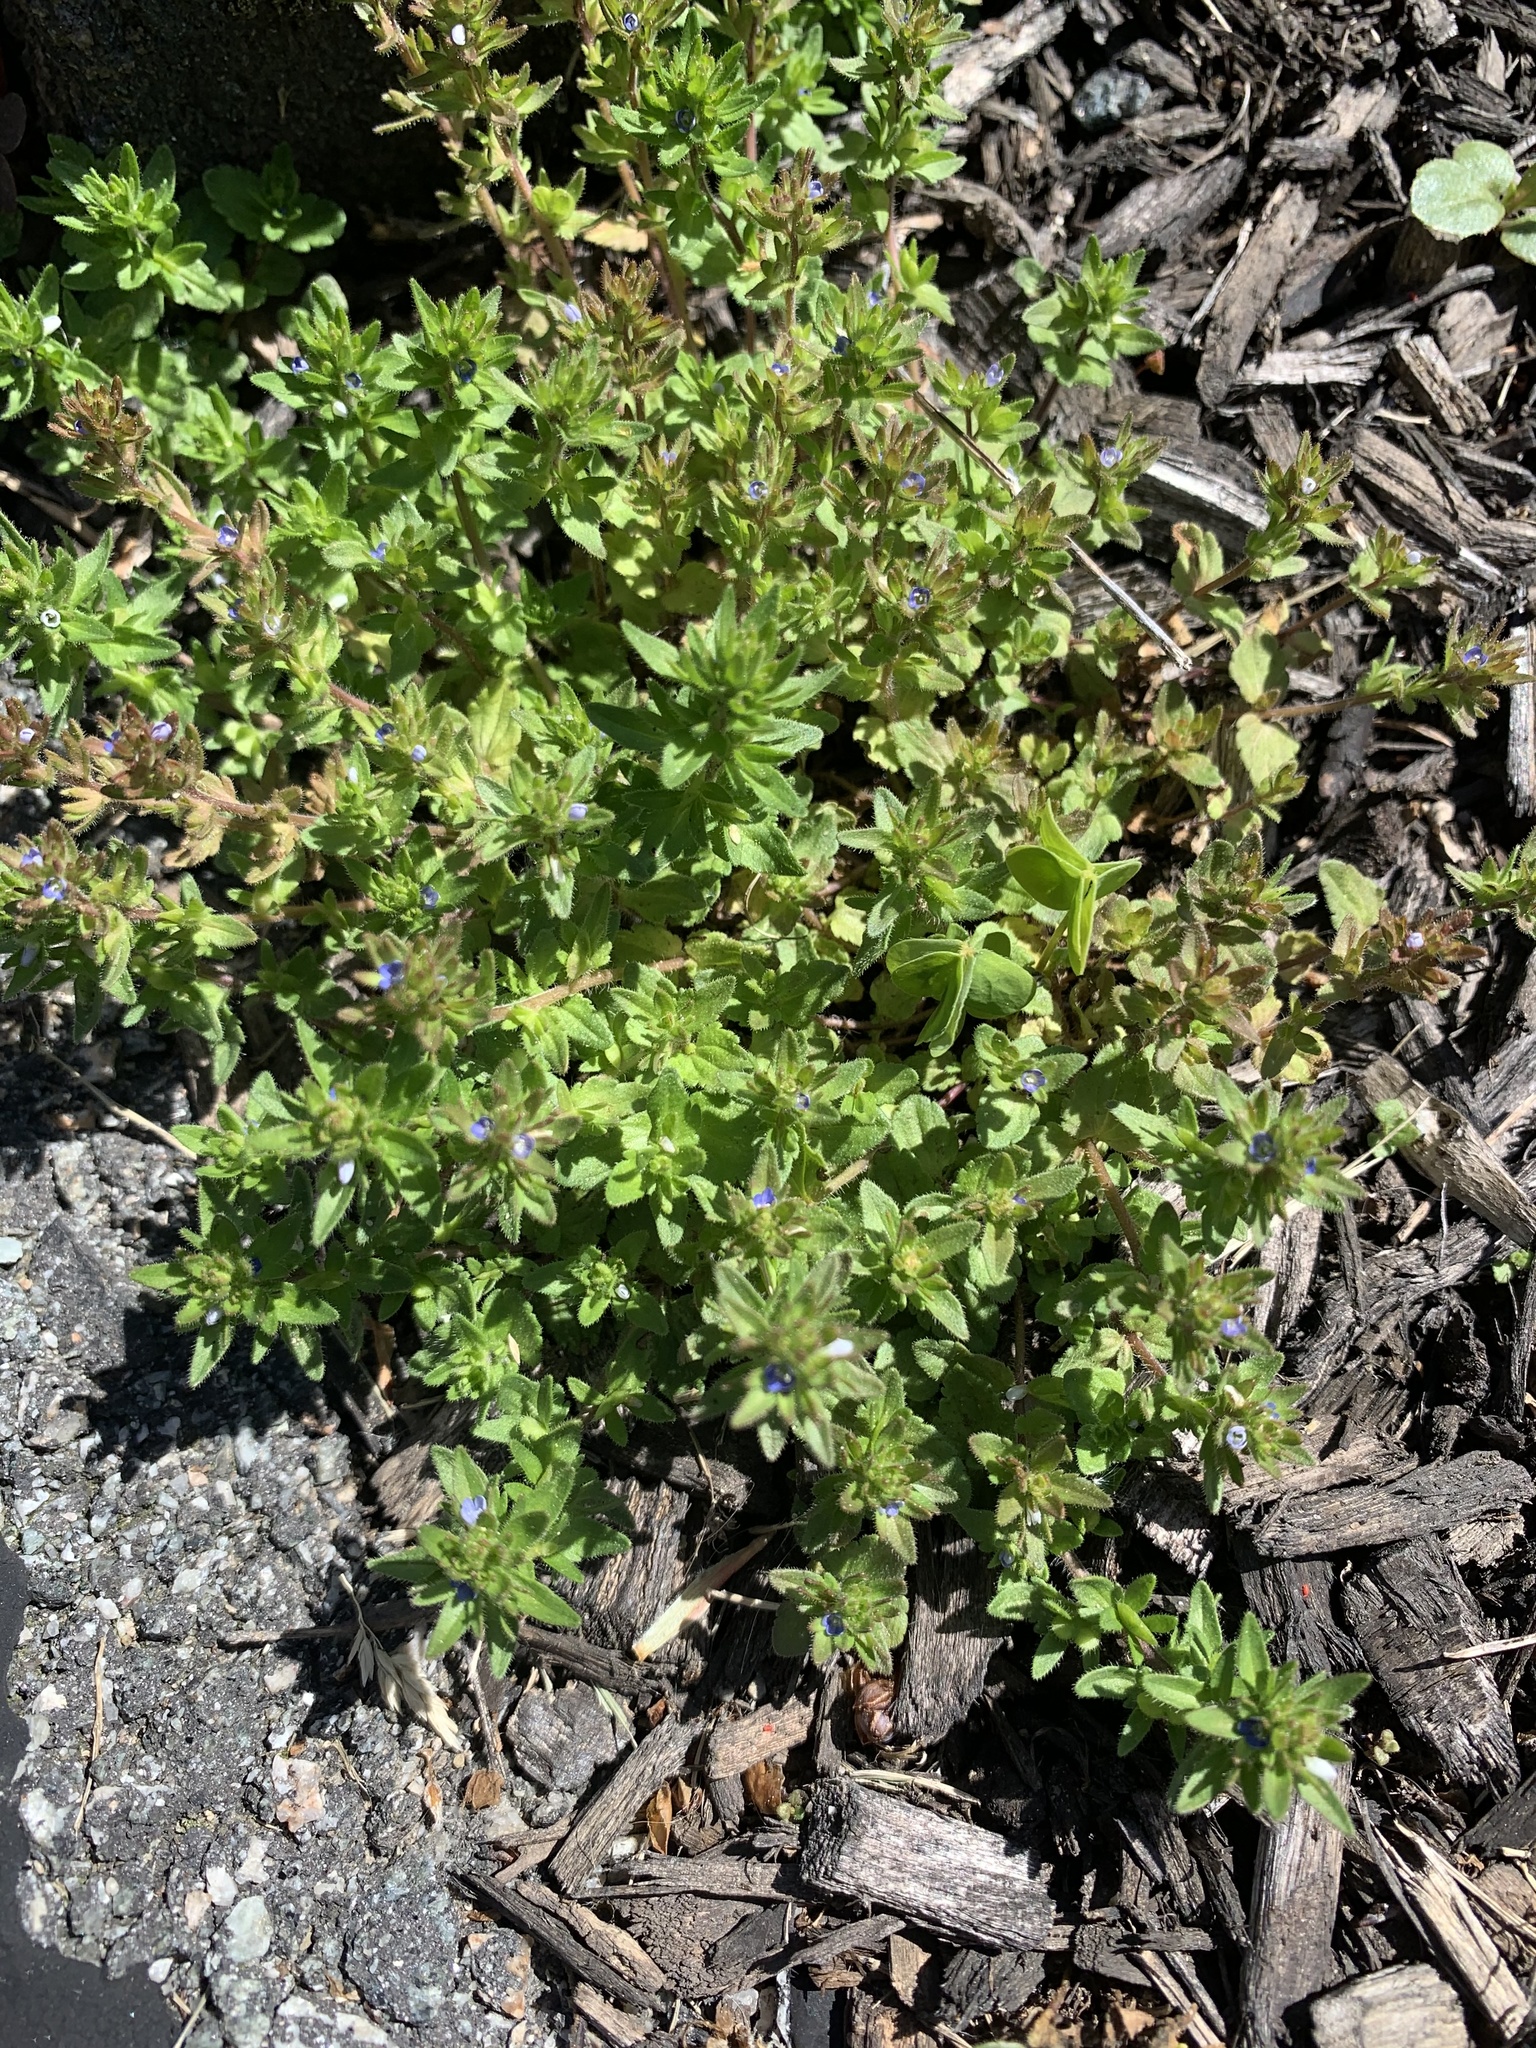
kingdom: Plantae
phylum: Tracheophyta
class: Magnoliopsida
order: Lamiales
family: Plantaginaceae
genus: Veronica
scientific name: Veronica arvensis
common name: Corn speedwell
